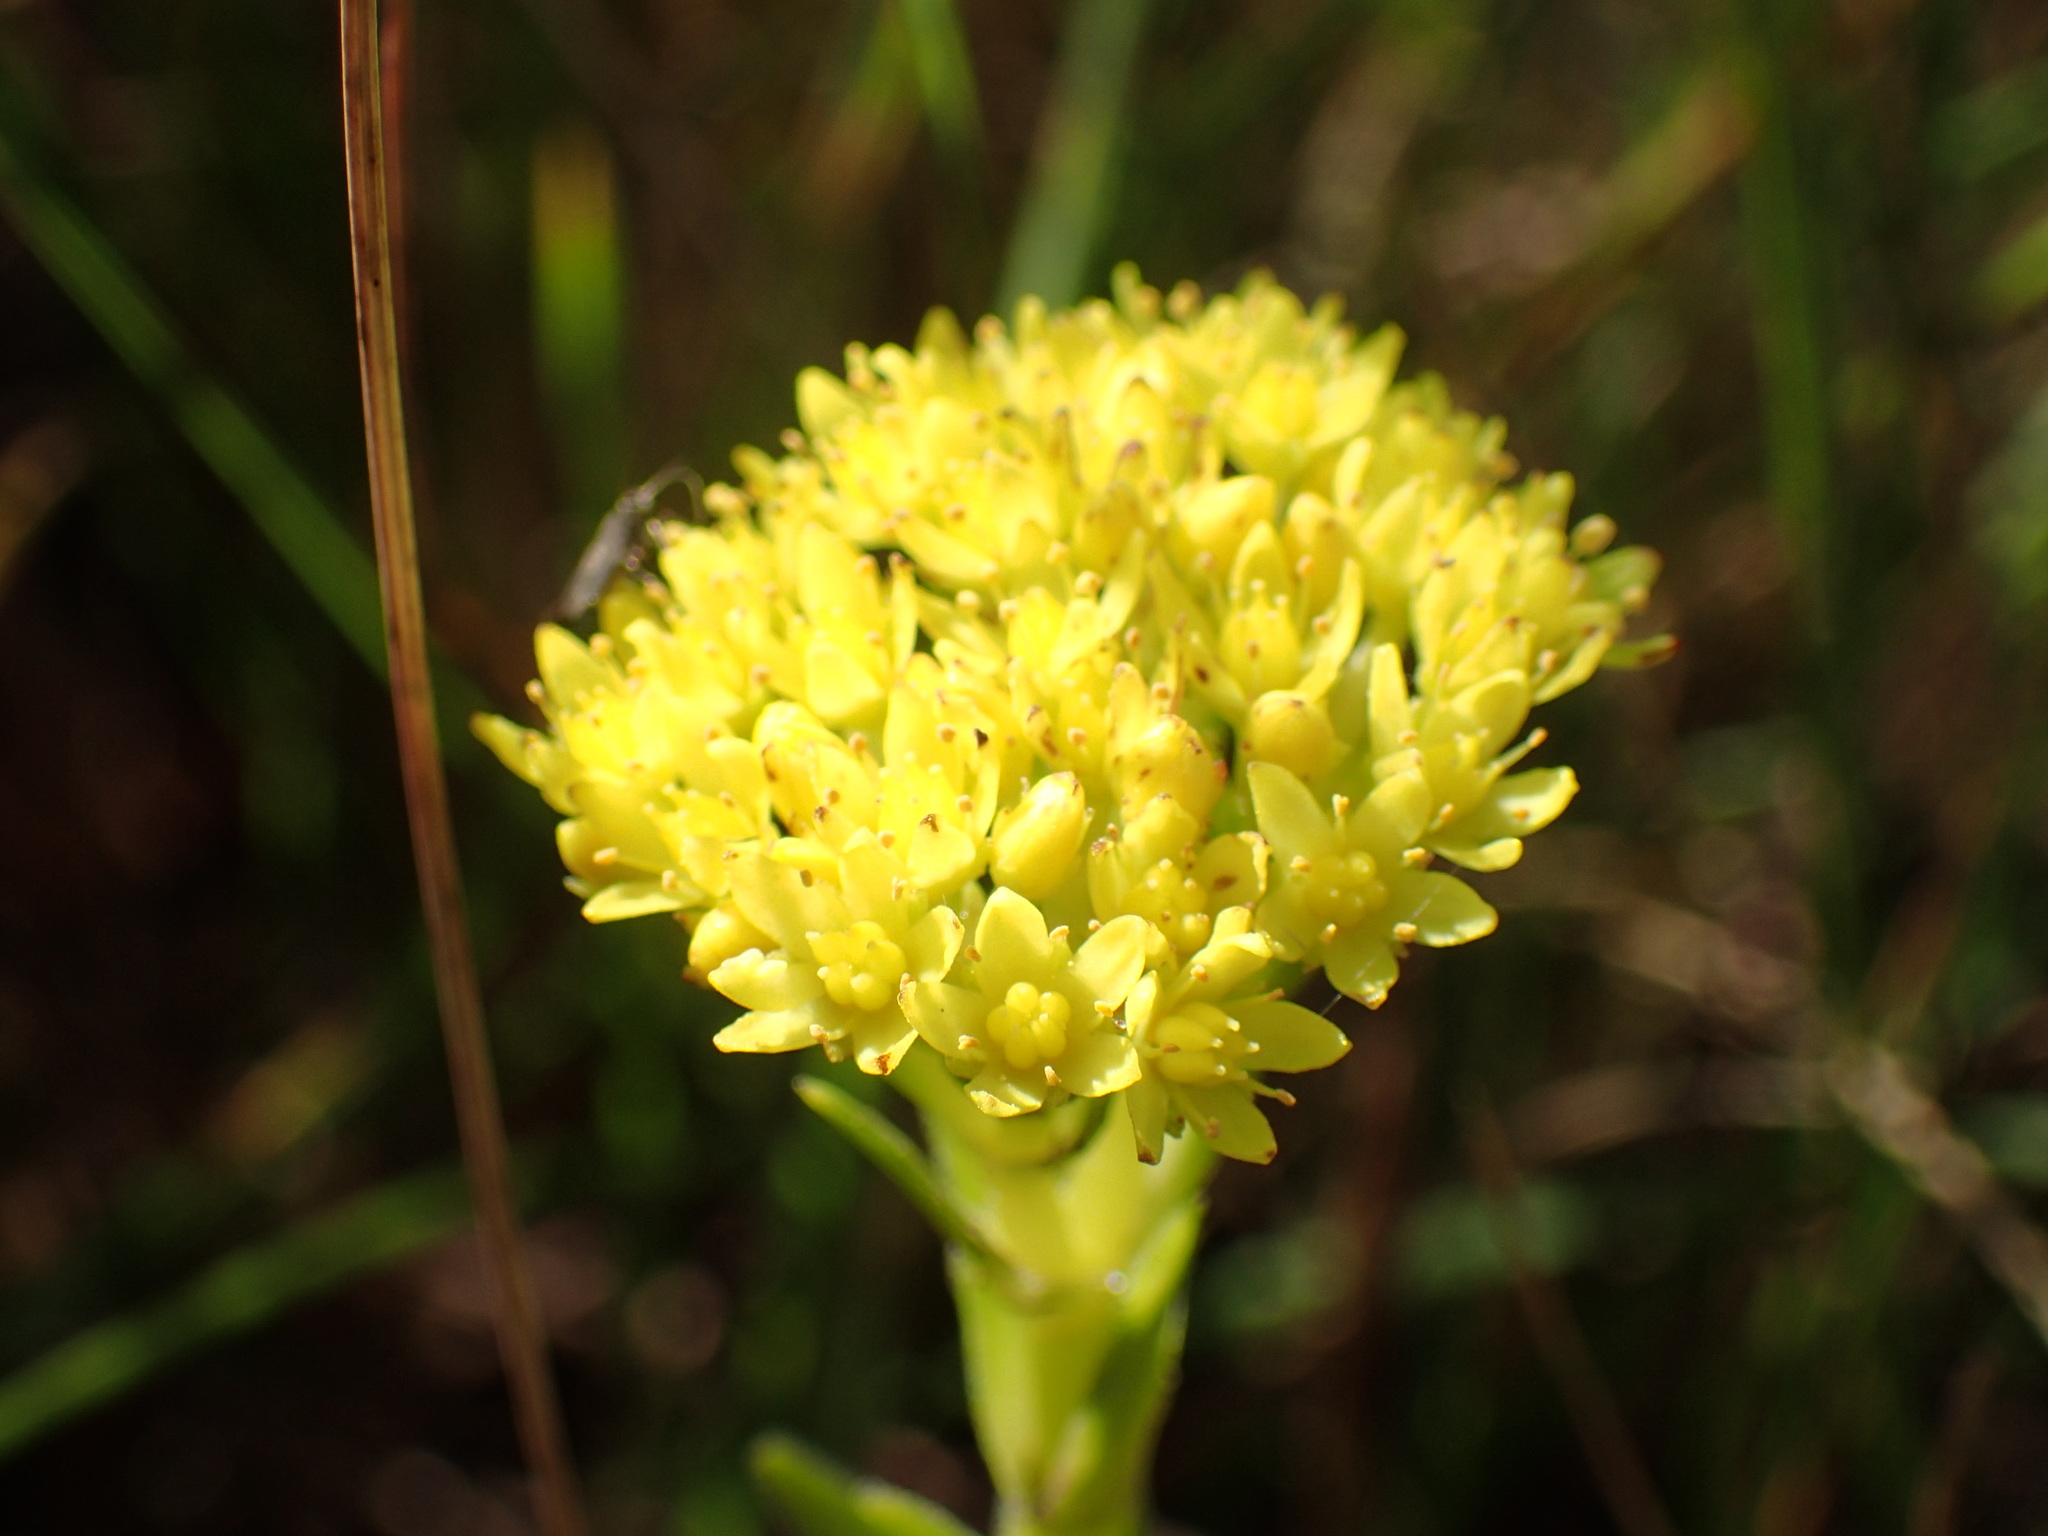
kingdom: Plantae
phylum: Tracheophyta
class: Magnoliopsida
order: Saxifragales
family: Crassulaceae
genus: Crassula
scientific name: Crassula vaginata
